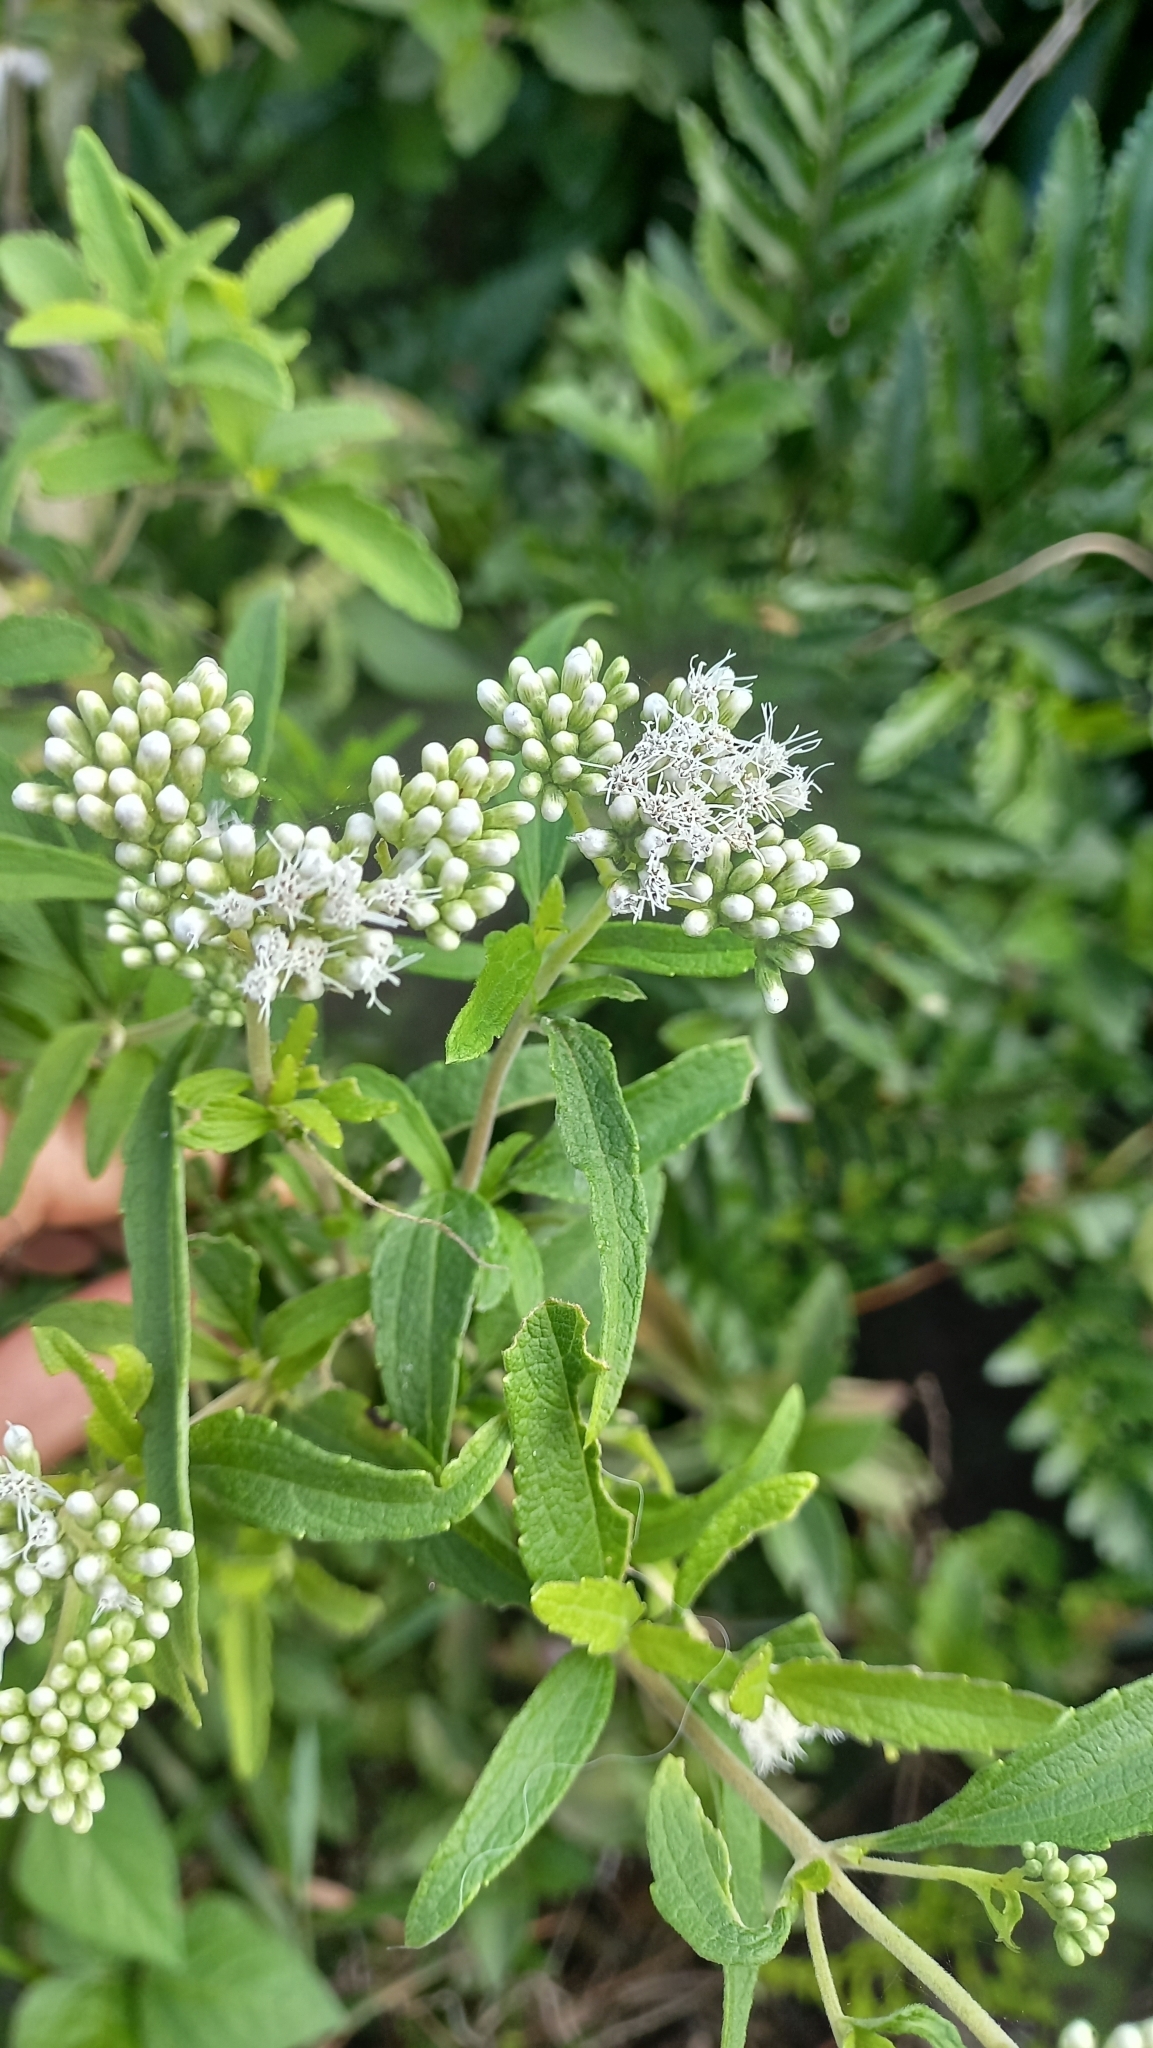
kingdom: Plantae
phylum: Tracheophyta
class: Magnoliopsida
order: Asterales
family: Asteraceae
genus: Austroeupatorium
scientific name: Austroeupatorium inulifolium
